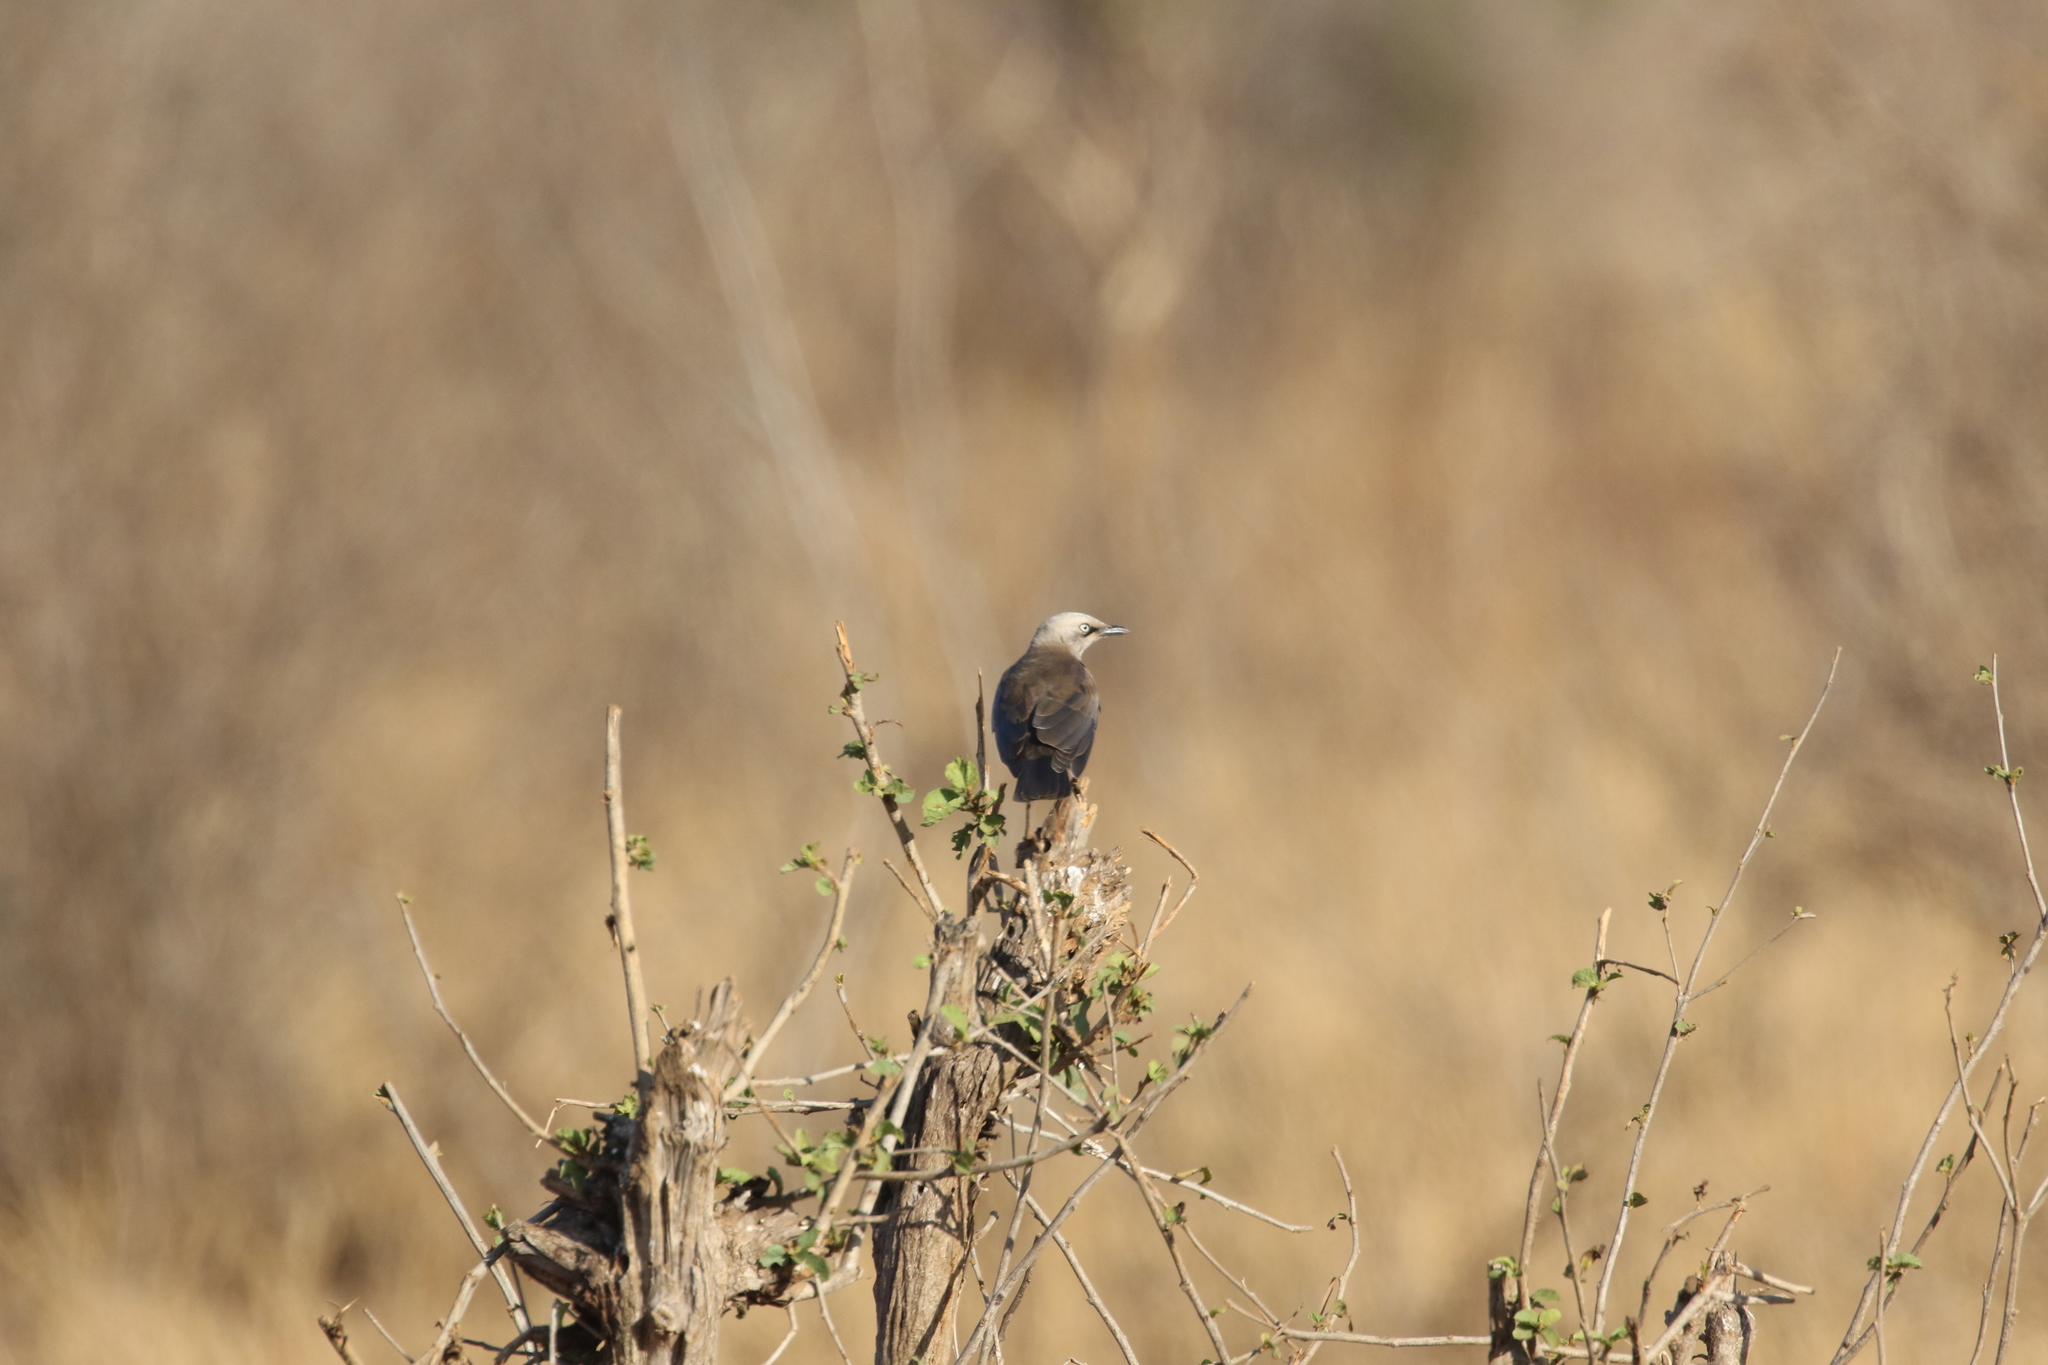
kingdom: Animalia
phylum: Chordata
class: Aves
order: Passeriformes
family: Sturnidae
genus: Lamprotornis
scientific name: Lamprotornis fischeri
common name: Fischer's starling
